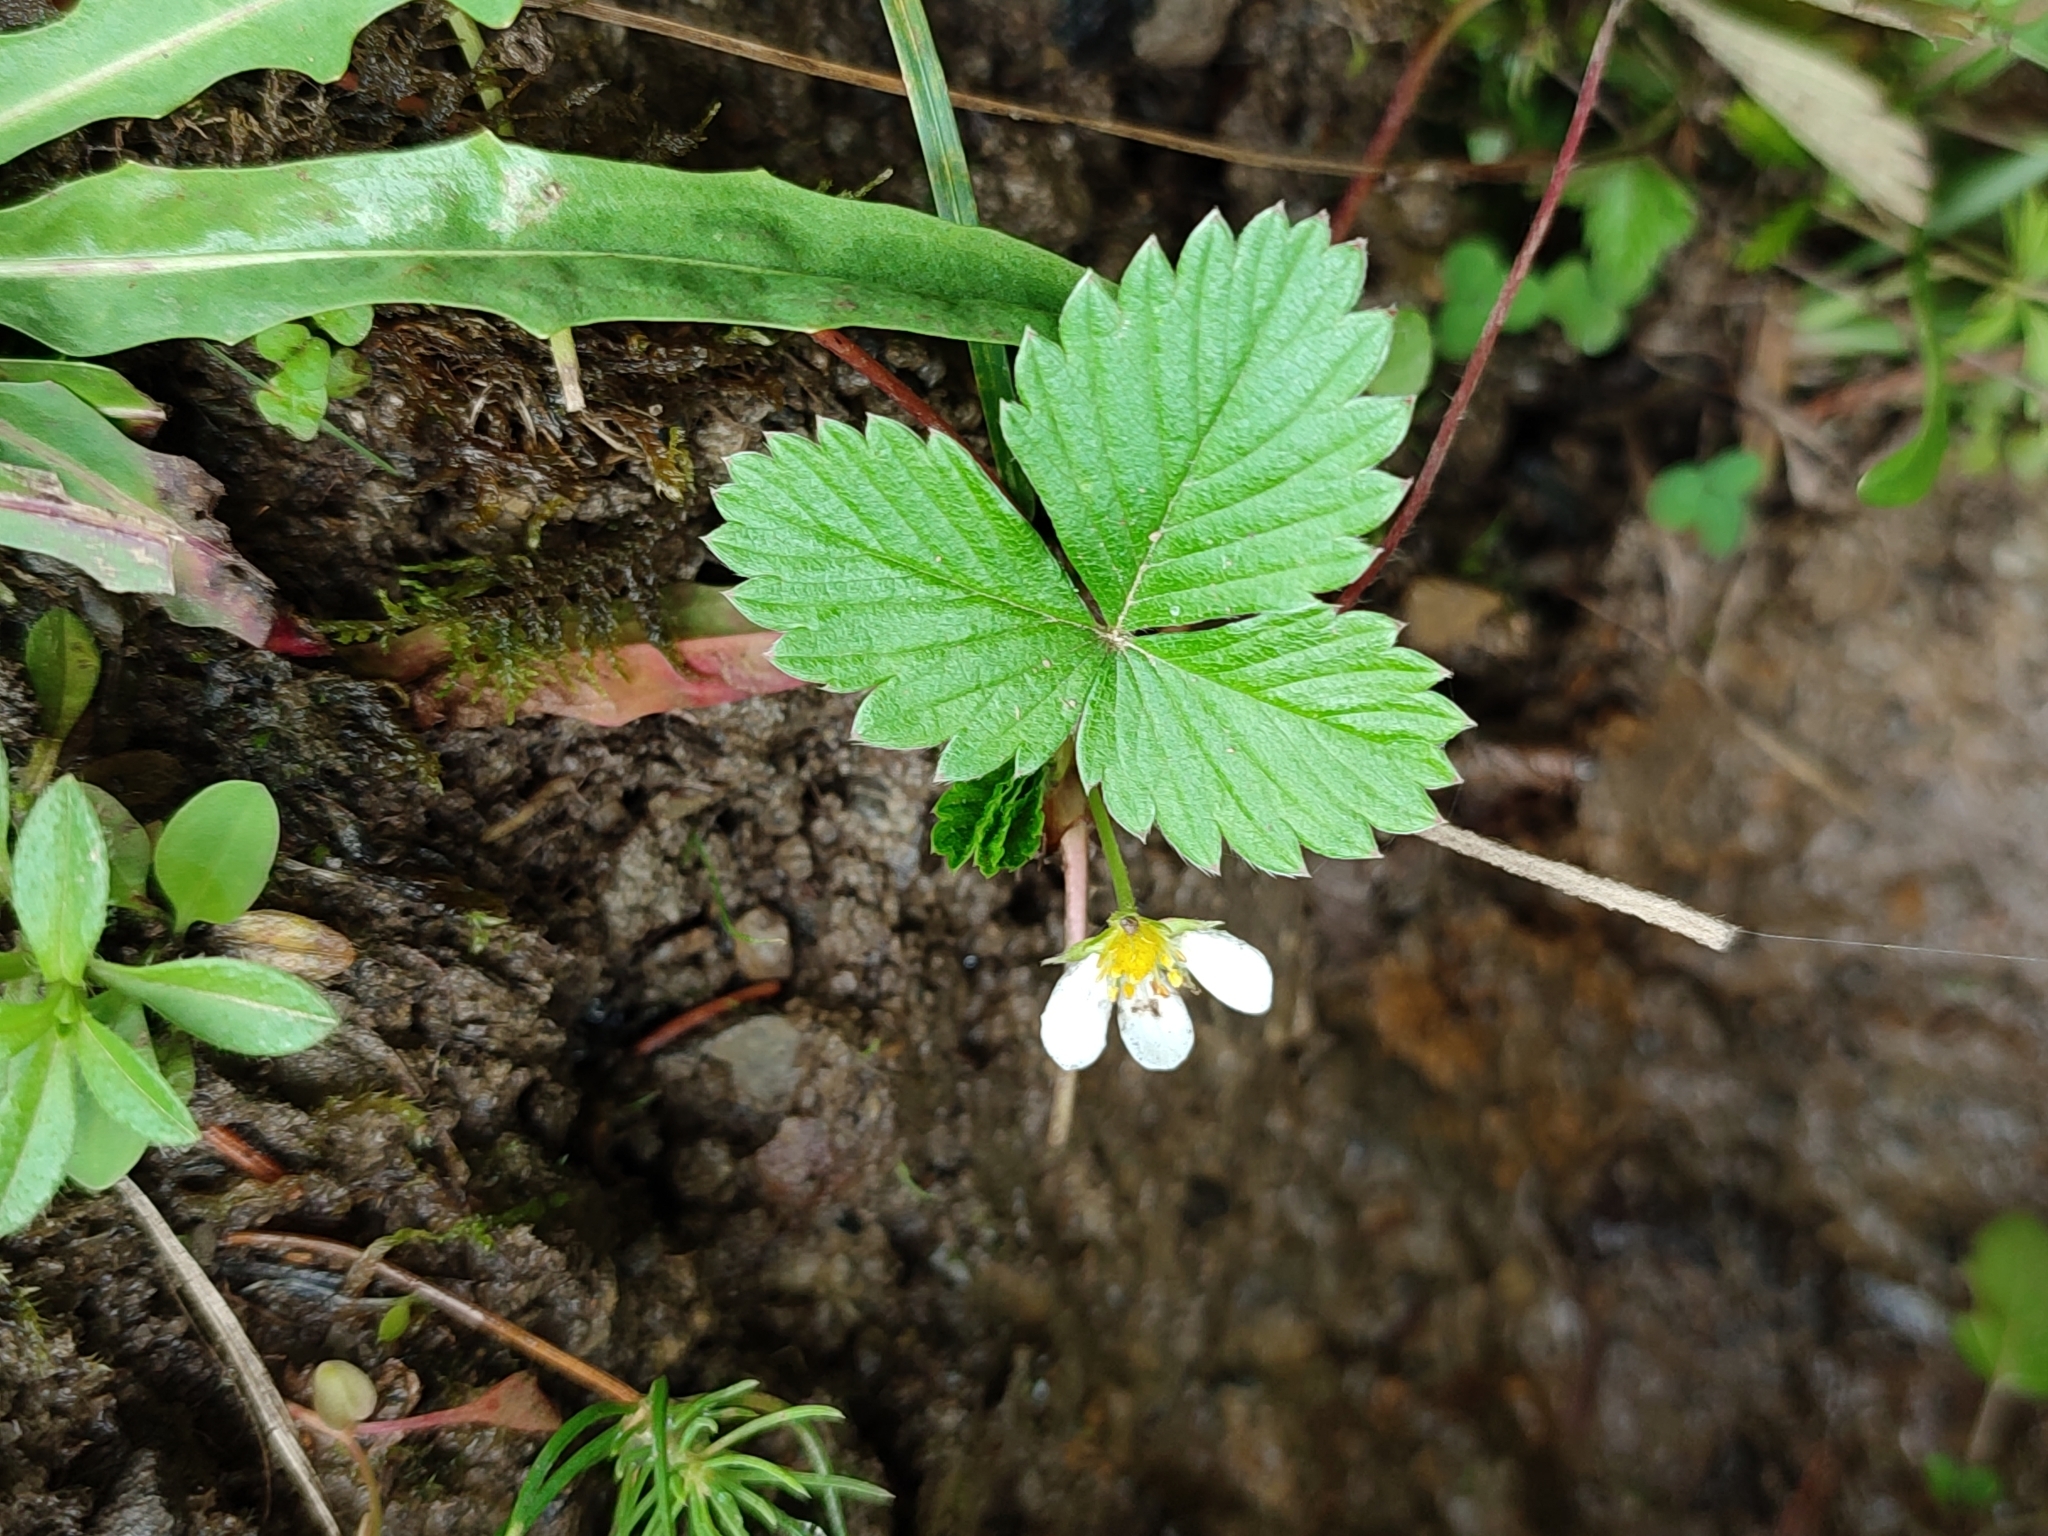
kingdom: Plantae
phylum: Tracheophyta
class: Magnoliopsida
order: Rosales
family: Rosaceae
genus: Fragaria
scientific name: Fragaria vesca
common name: Wild strawberry
